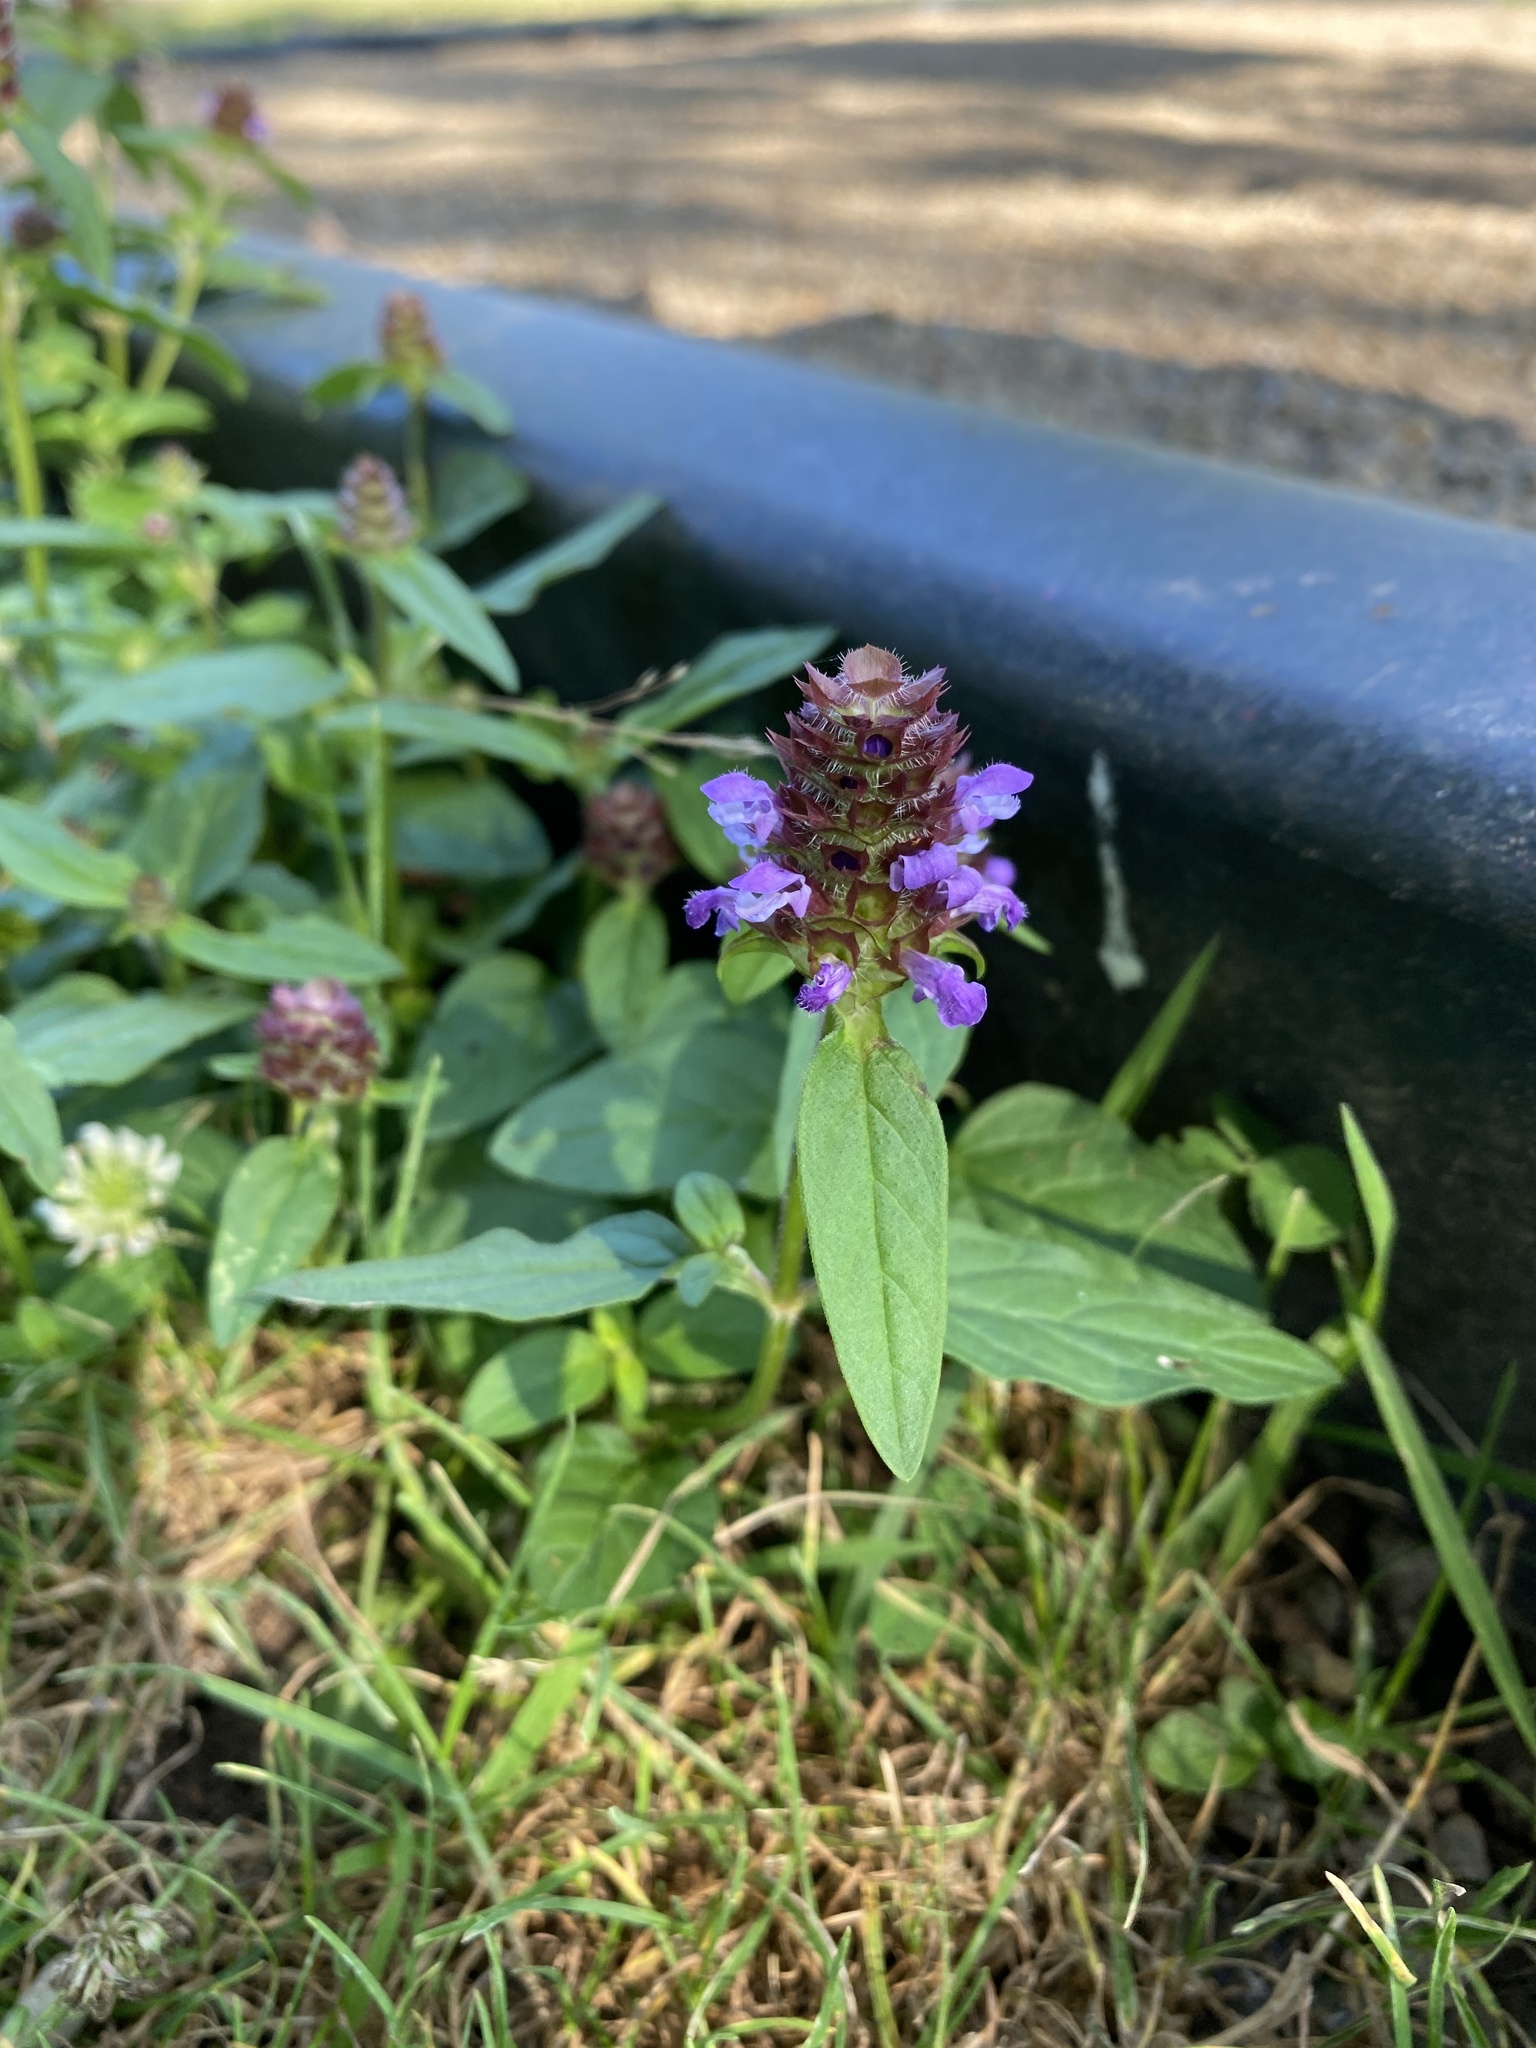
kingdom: Plantae
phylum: Tracheophyta
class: Magnoliopsida
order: Lamiales
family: Lamiaceae
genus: Prunella
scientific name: Prunella vulgaris
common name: Heal-all
